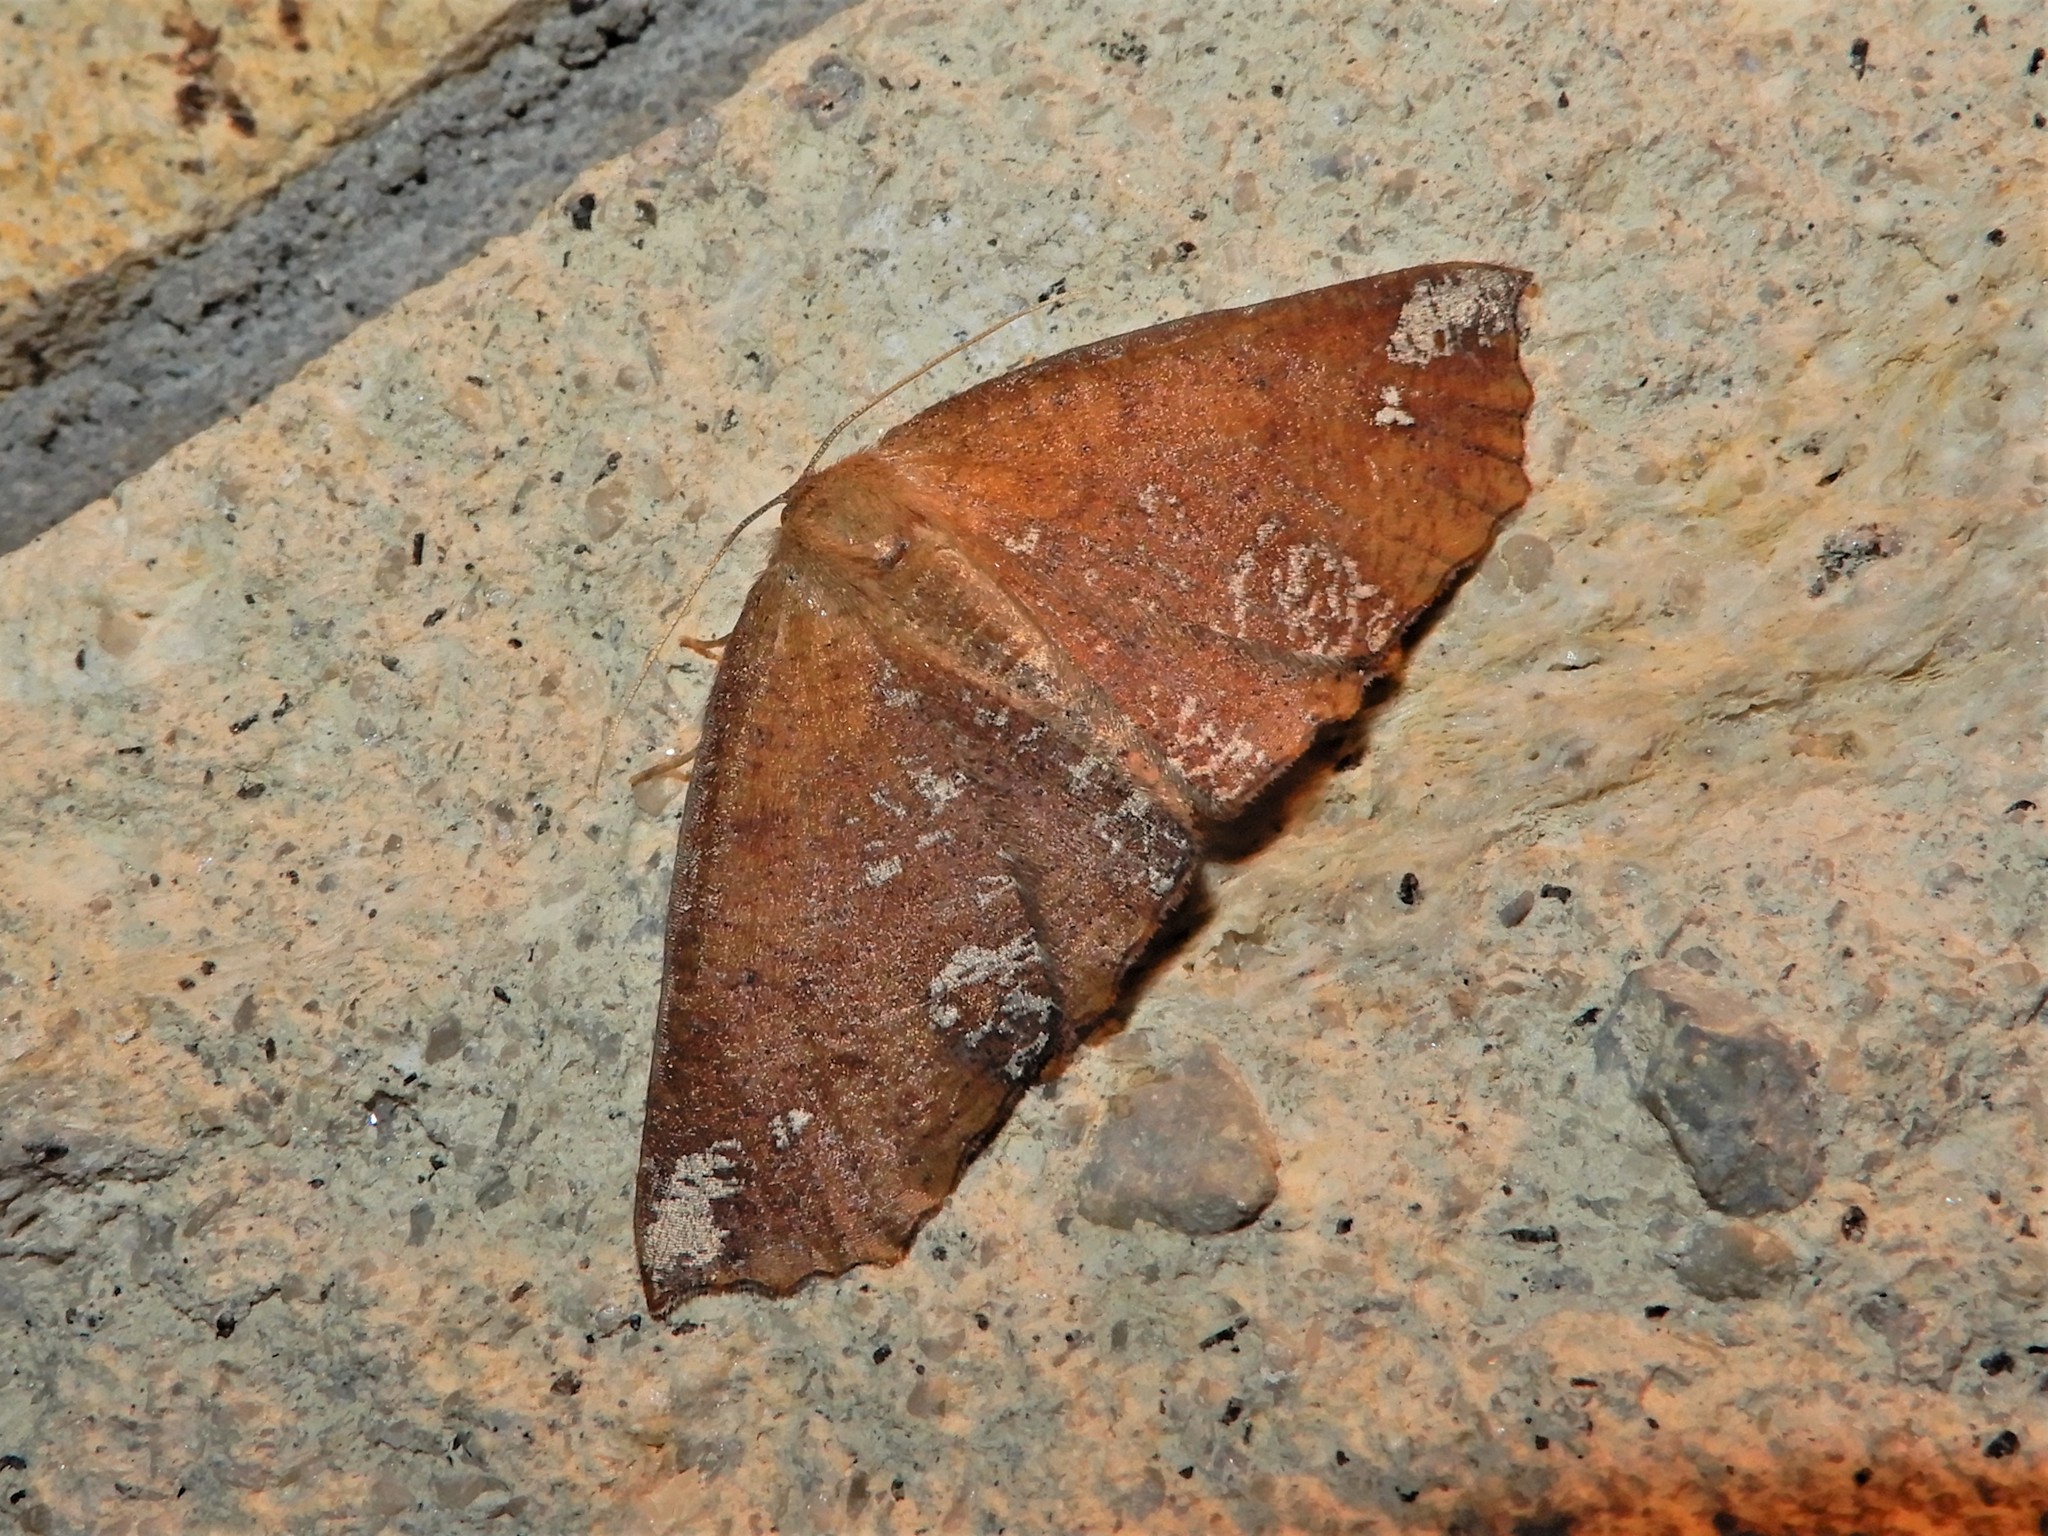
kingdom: Animalia
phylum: Arthropoda
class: Insecta
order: Lepidoptera
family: Geometridae
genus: Xyridacma
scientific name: Xyridacma ustaria
